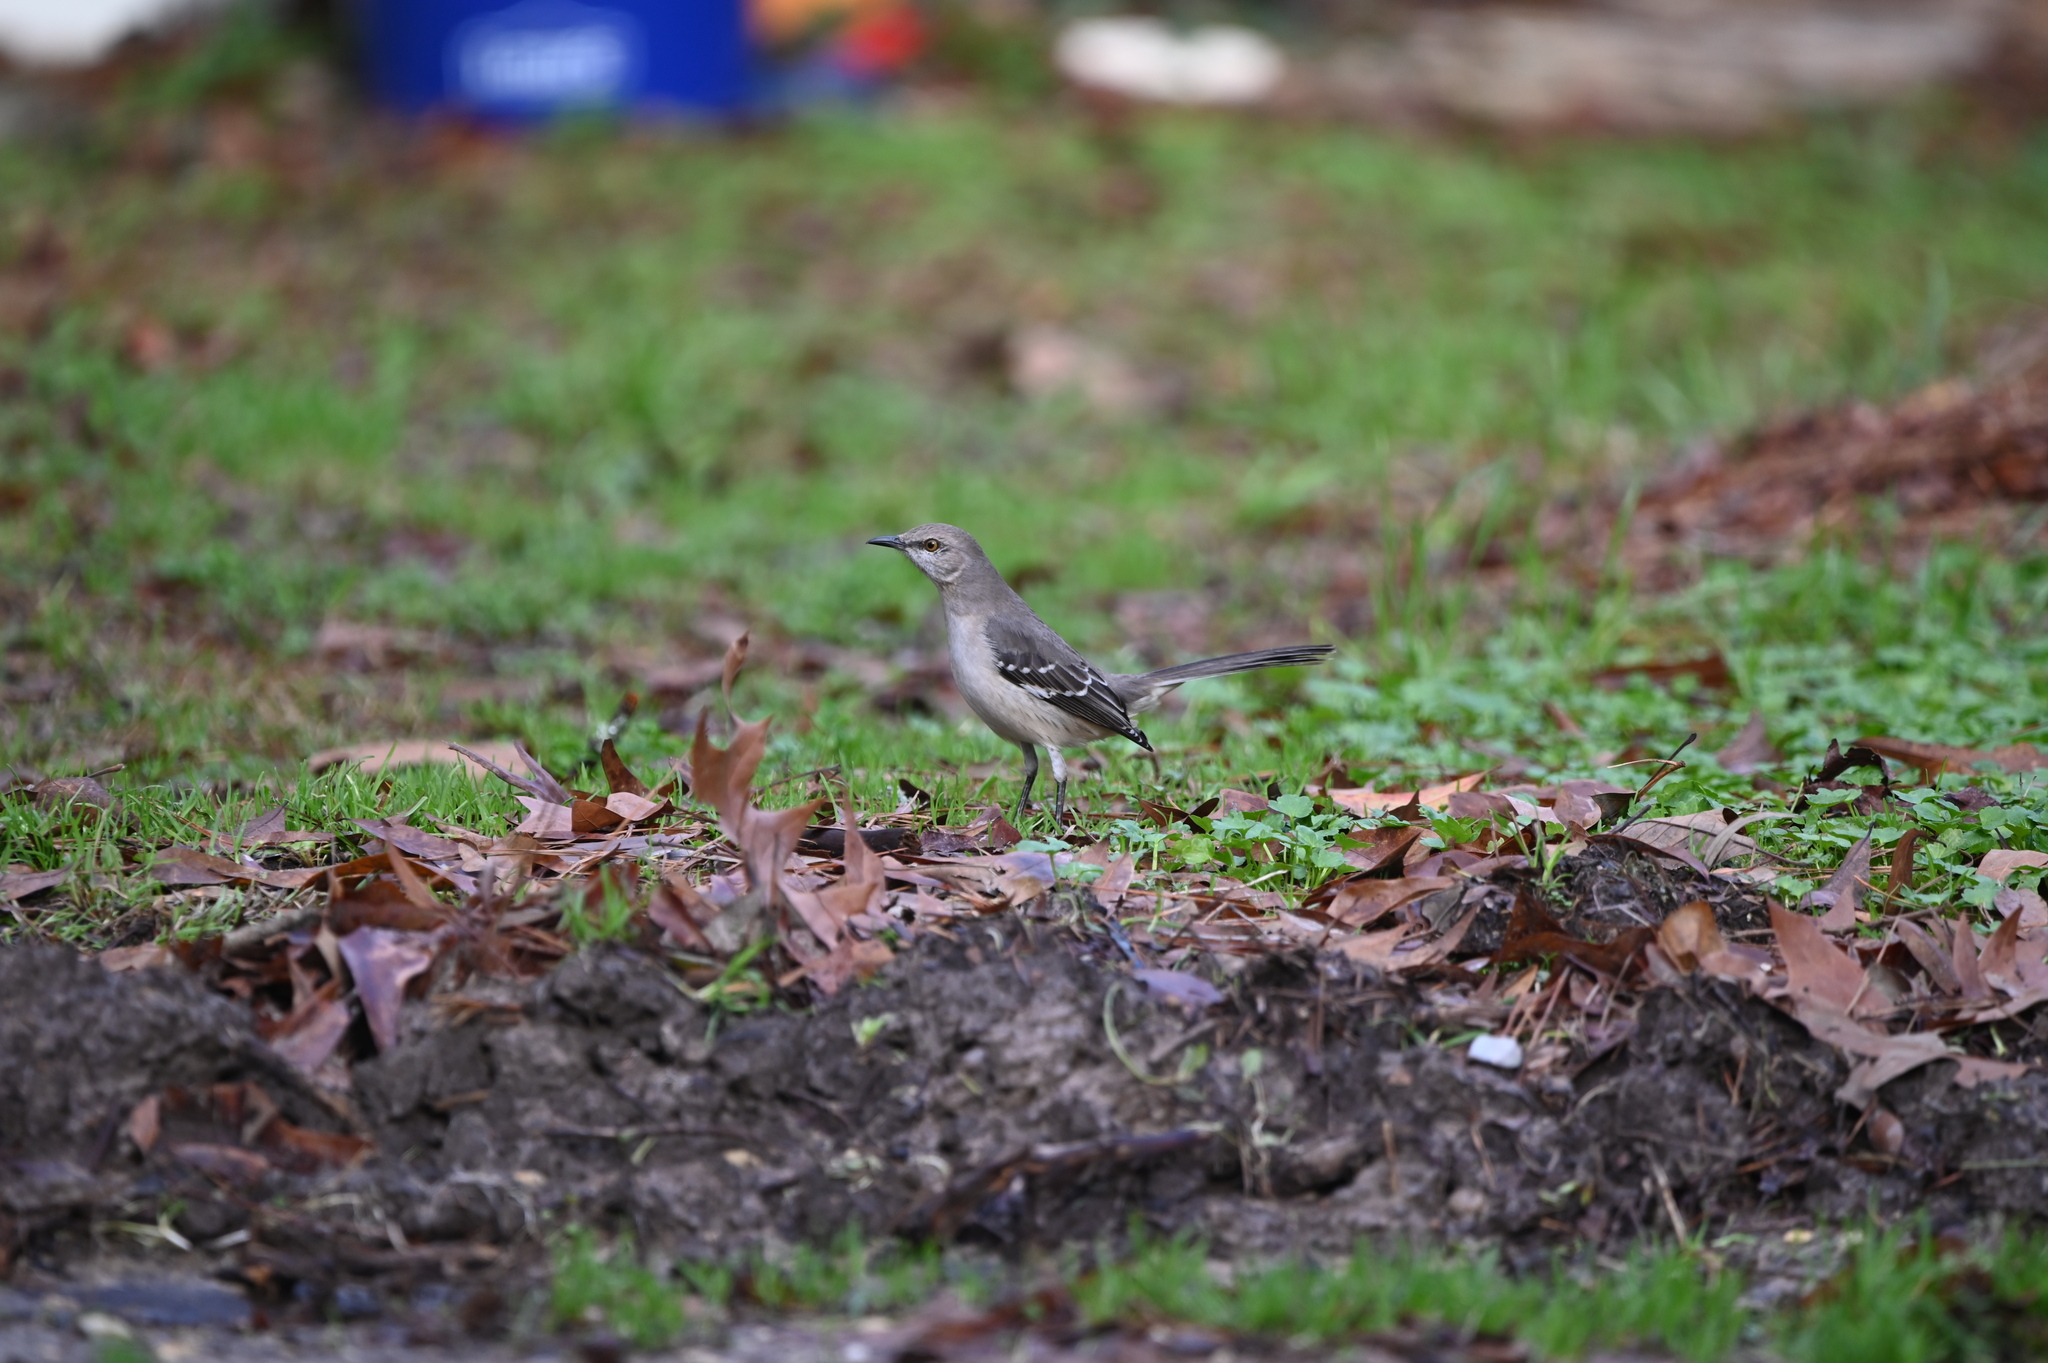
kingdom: Animalia
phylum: Chordata
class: Aves
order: Passeriformes
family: Mimidae
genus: Mimus
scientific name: Mimus polyglottos
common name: Northern mockingbird
